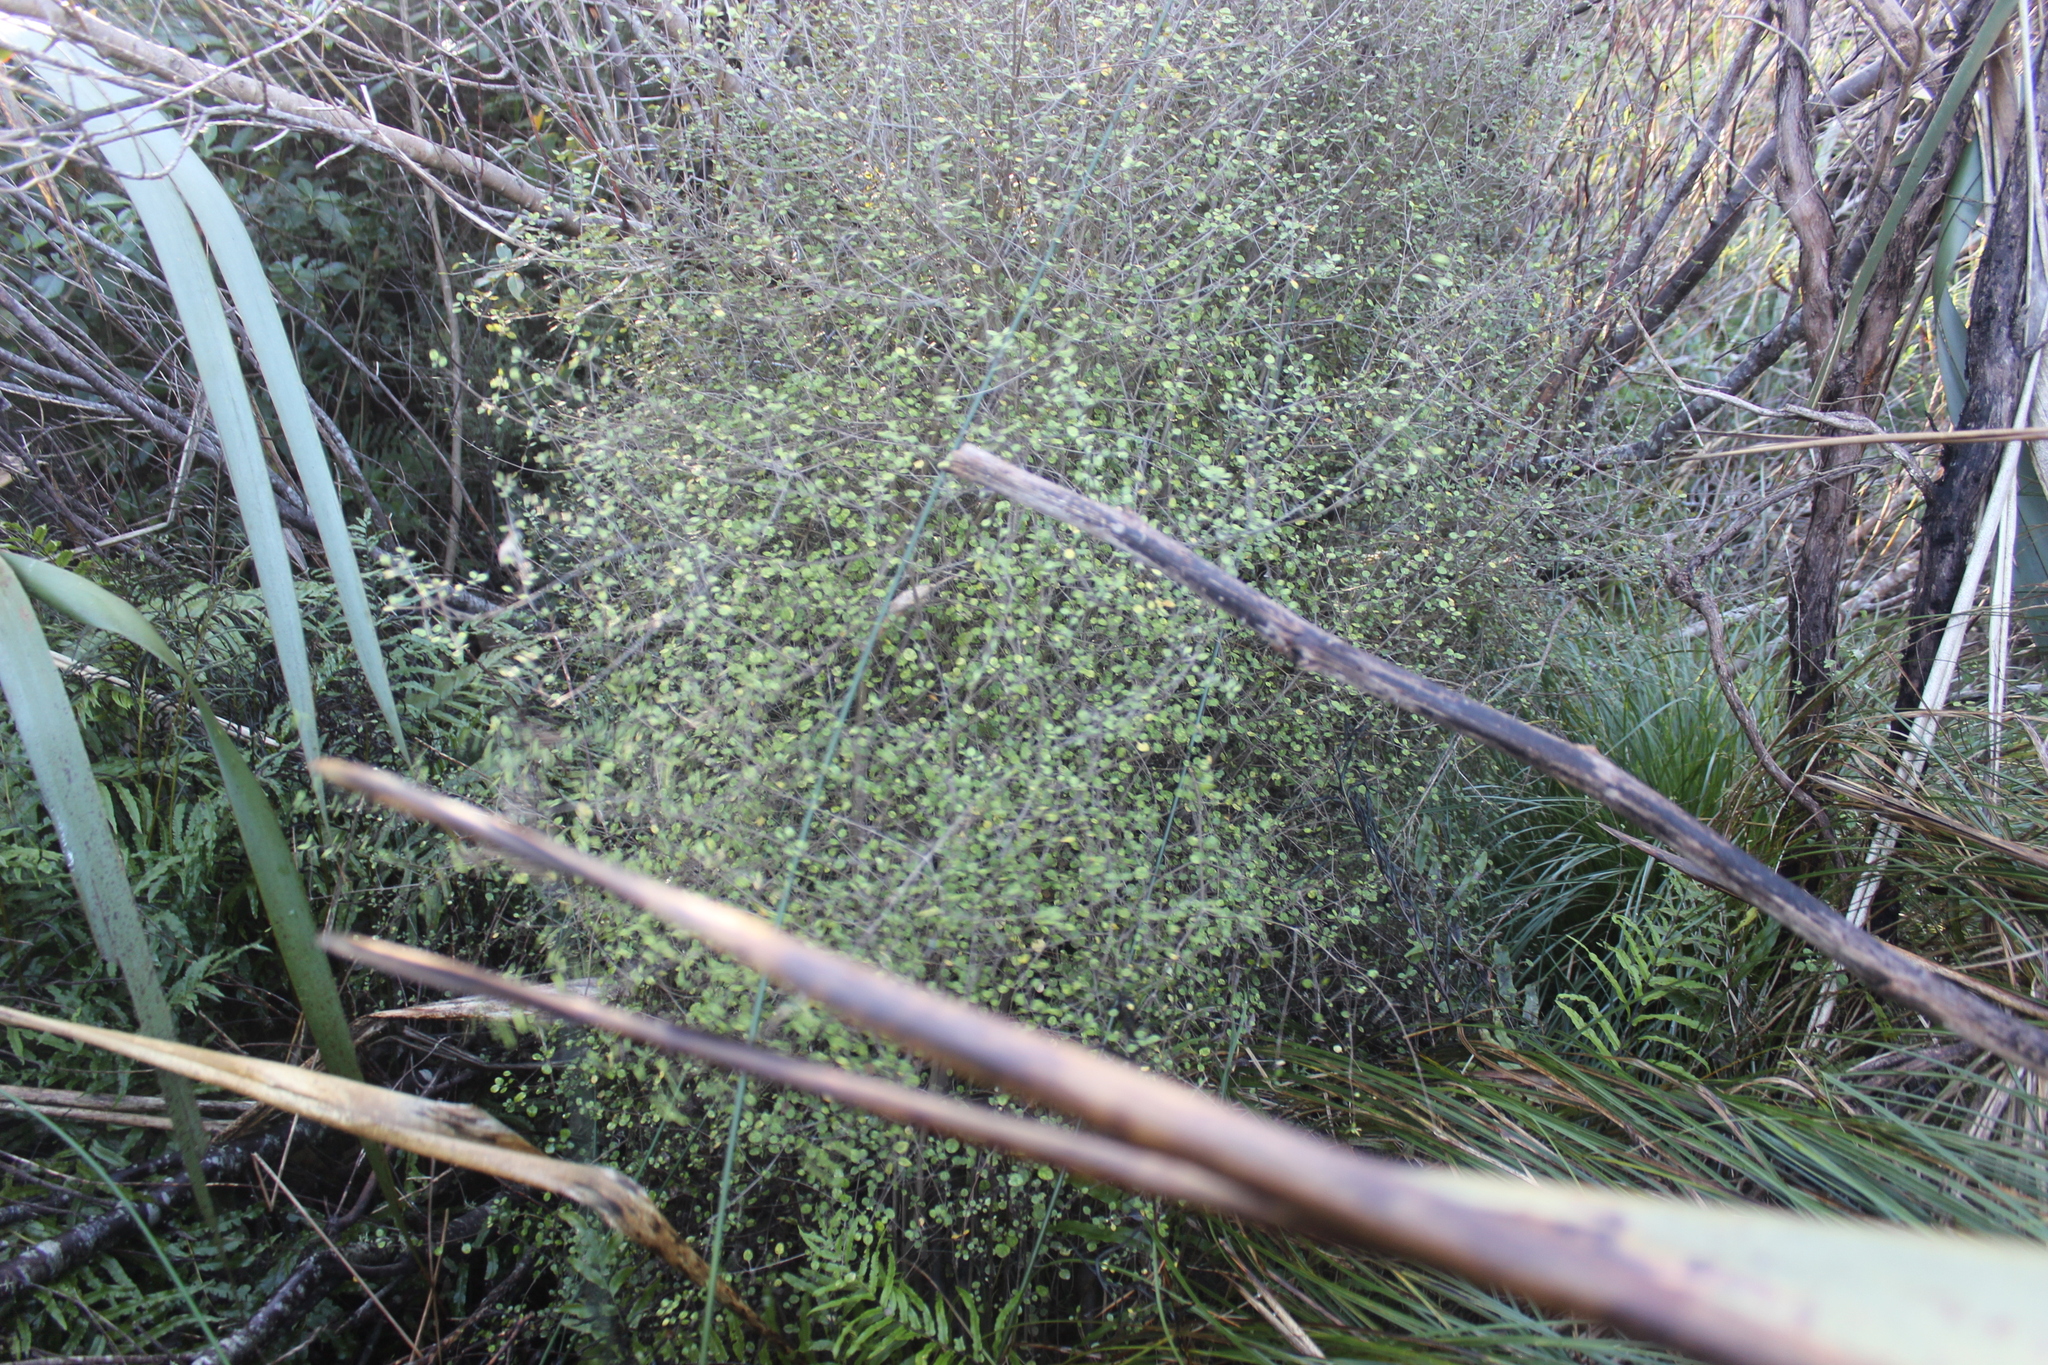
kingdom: Plantae
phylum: Tracheophyta
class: Magnoliopsida
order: Gentianales
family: Rubiaceae
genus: Coprosma
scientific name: Coprosma tenuicaulis
